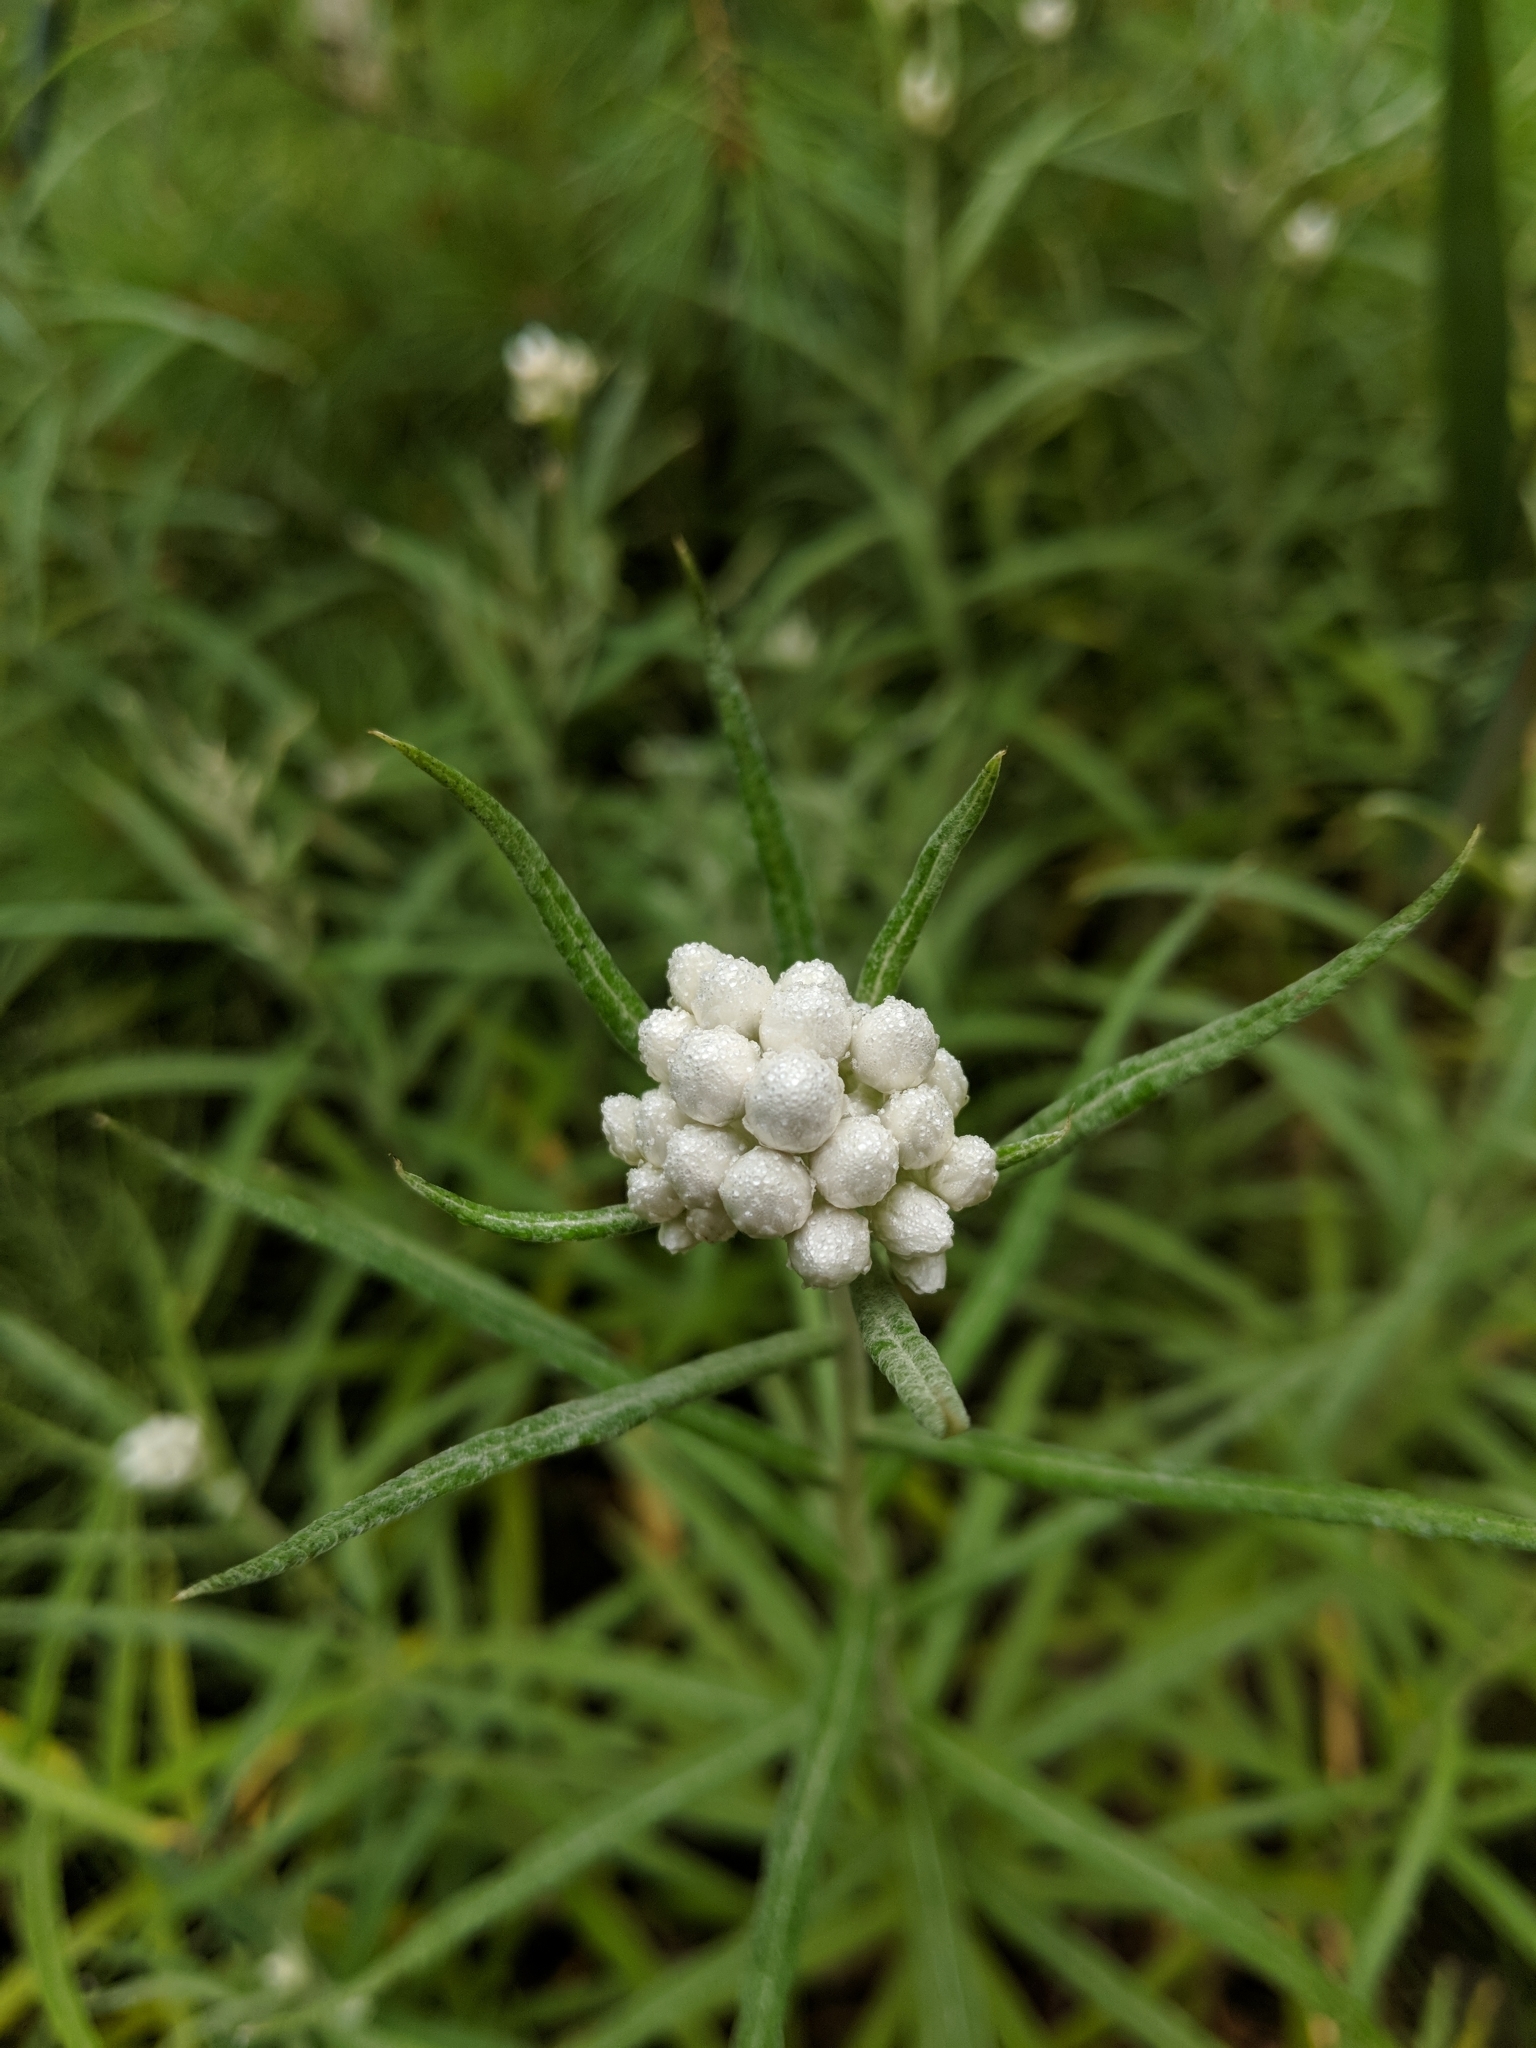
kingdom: Plantae
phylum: Tracheophyta
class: Magnoliopsida
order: Asterales
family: Asteraceae
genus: Anaphalis
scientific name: Anaphalis margaritacea
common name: Pearly everlasting
